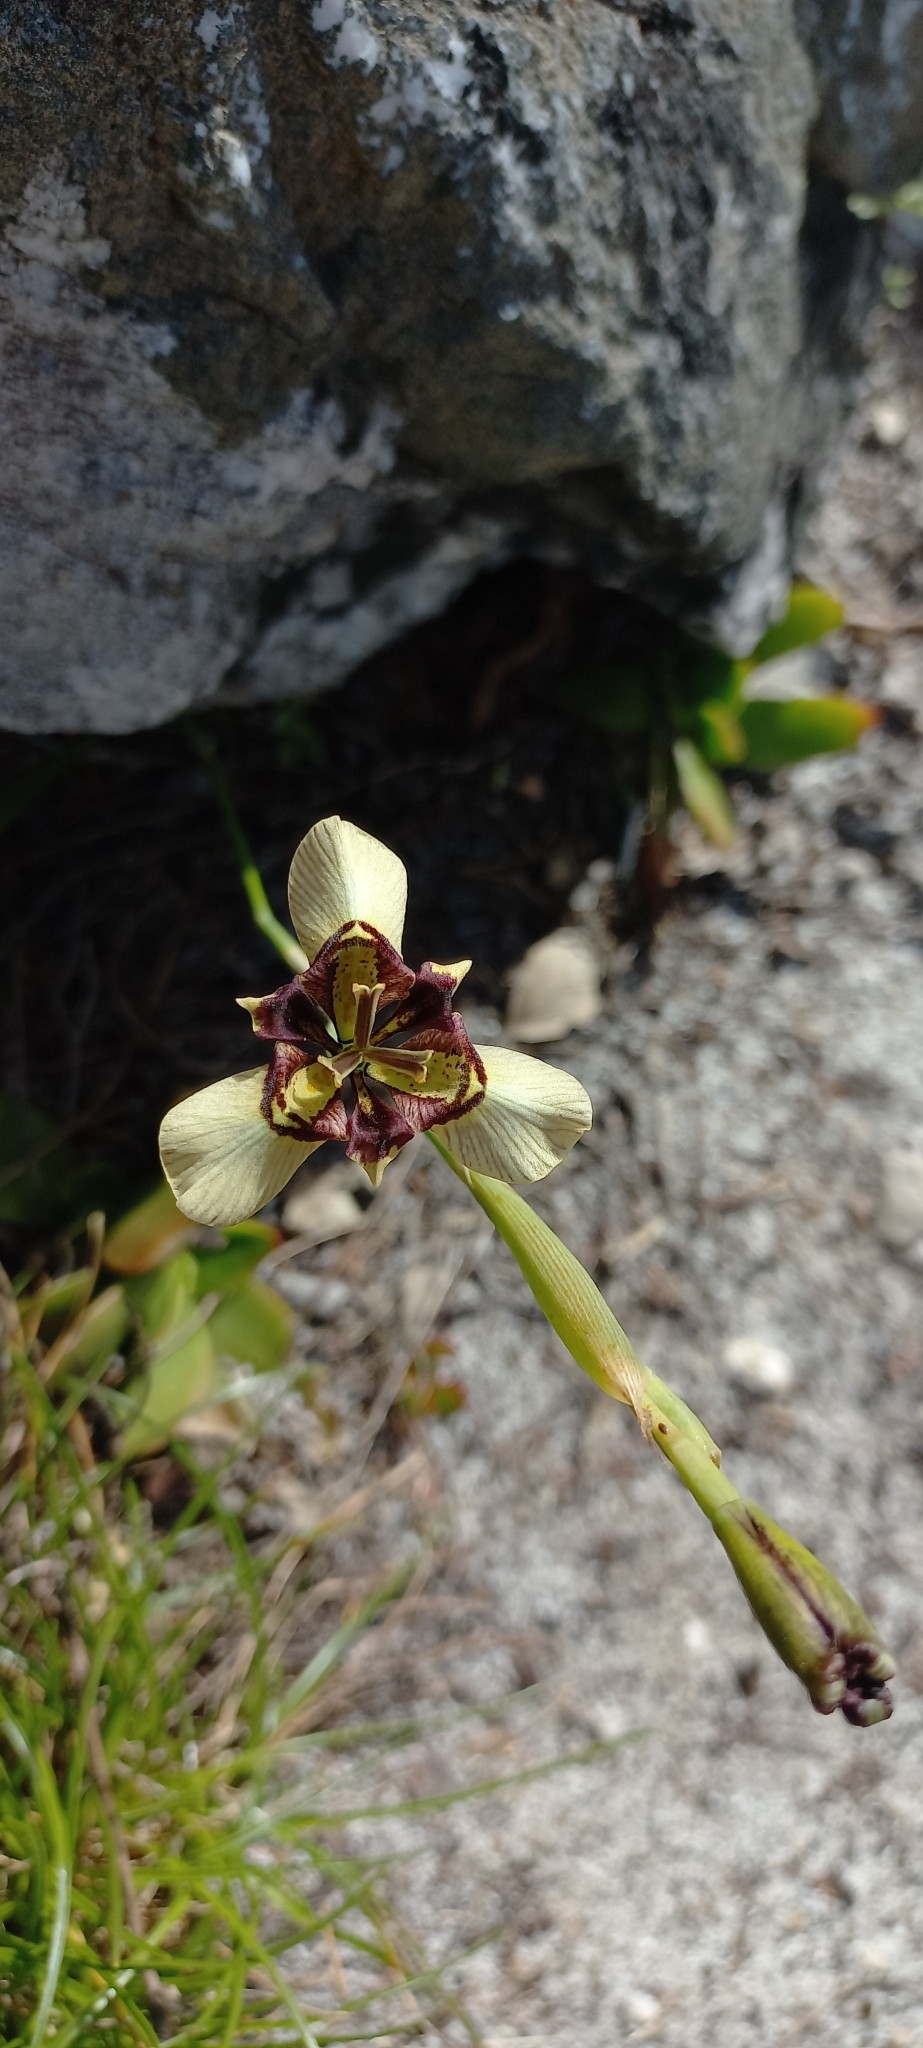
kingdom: Plantae
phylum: Tracheophyta
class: Liliopsida
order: Asparagales
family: Iridaceae
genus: Moraea
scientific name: Moraea lurida
